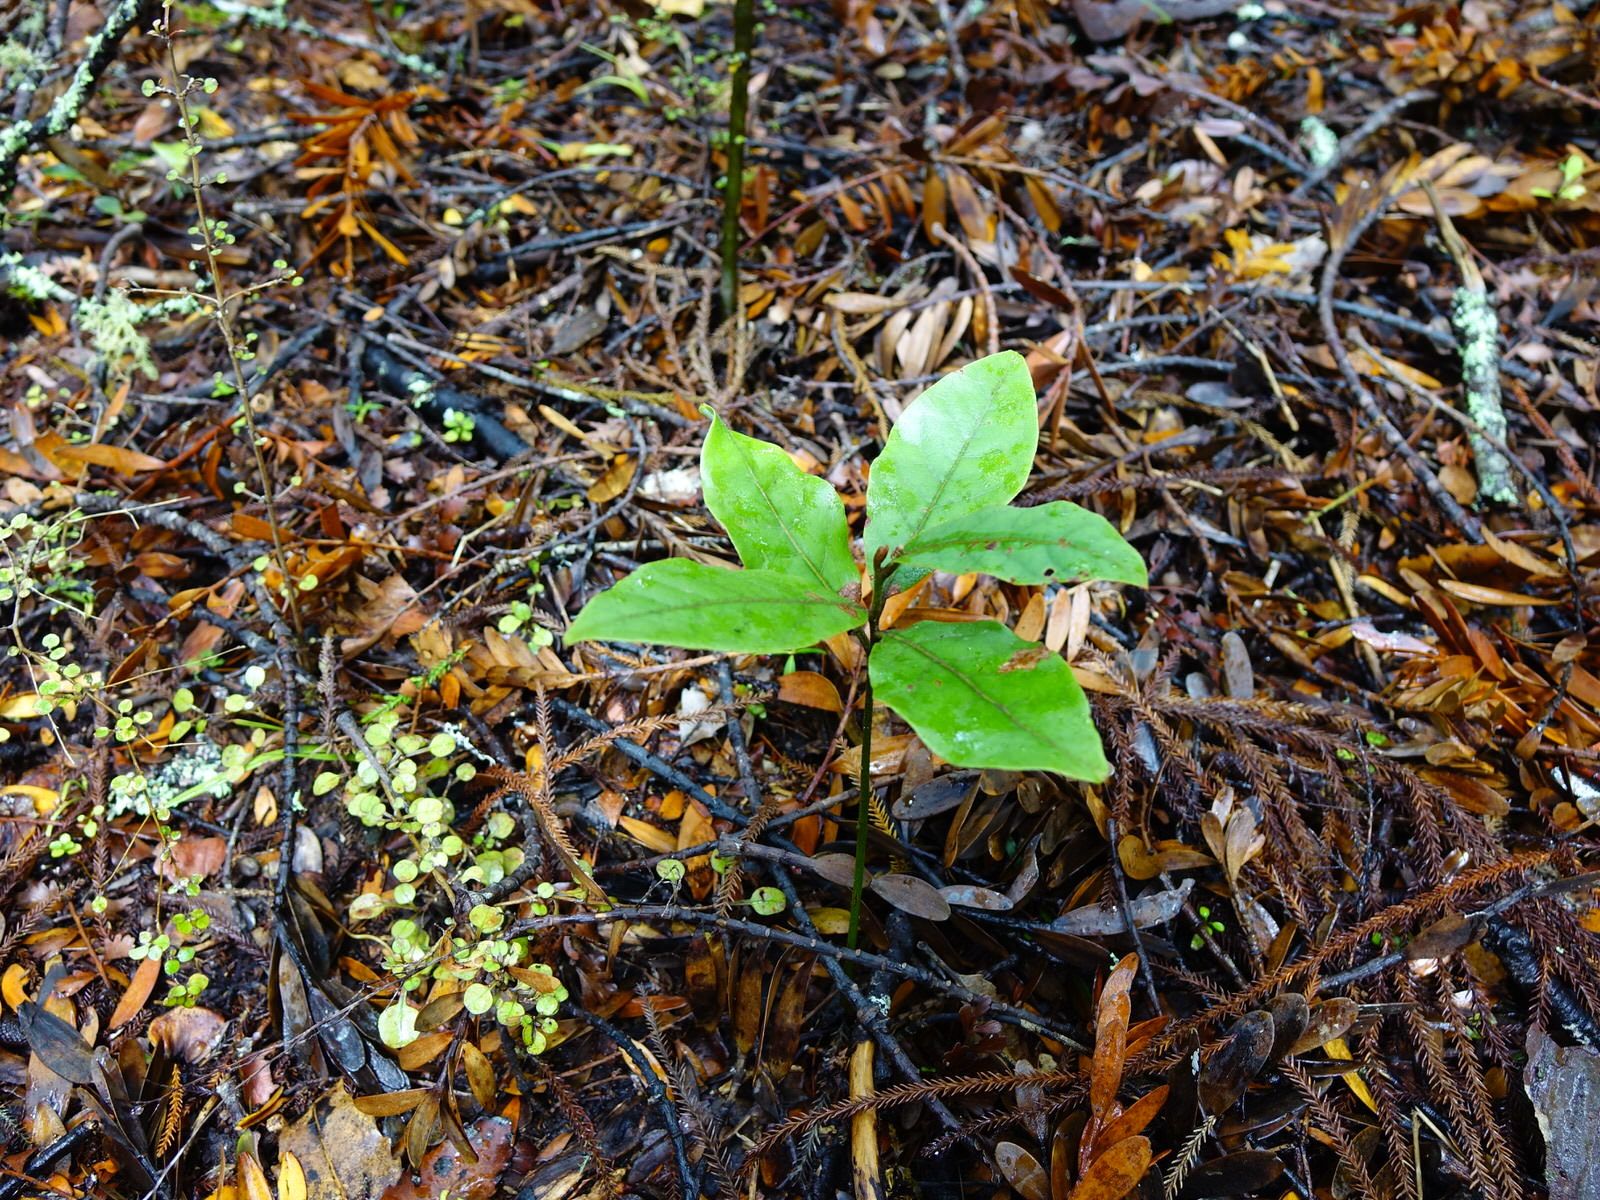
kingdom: Plantae
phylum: Tracheophyta
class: Magnoliopsida
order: Laurales
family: Lauraceae
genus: Beilschmiedia
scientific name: Beilschmiedia tarairi
